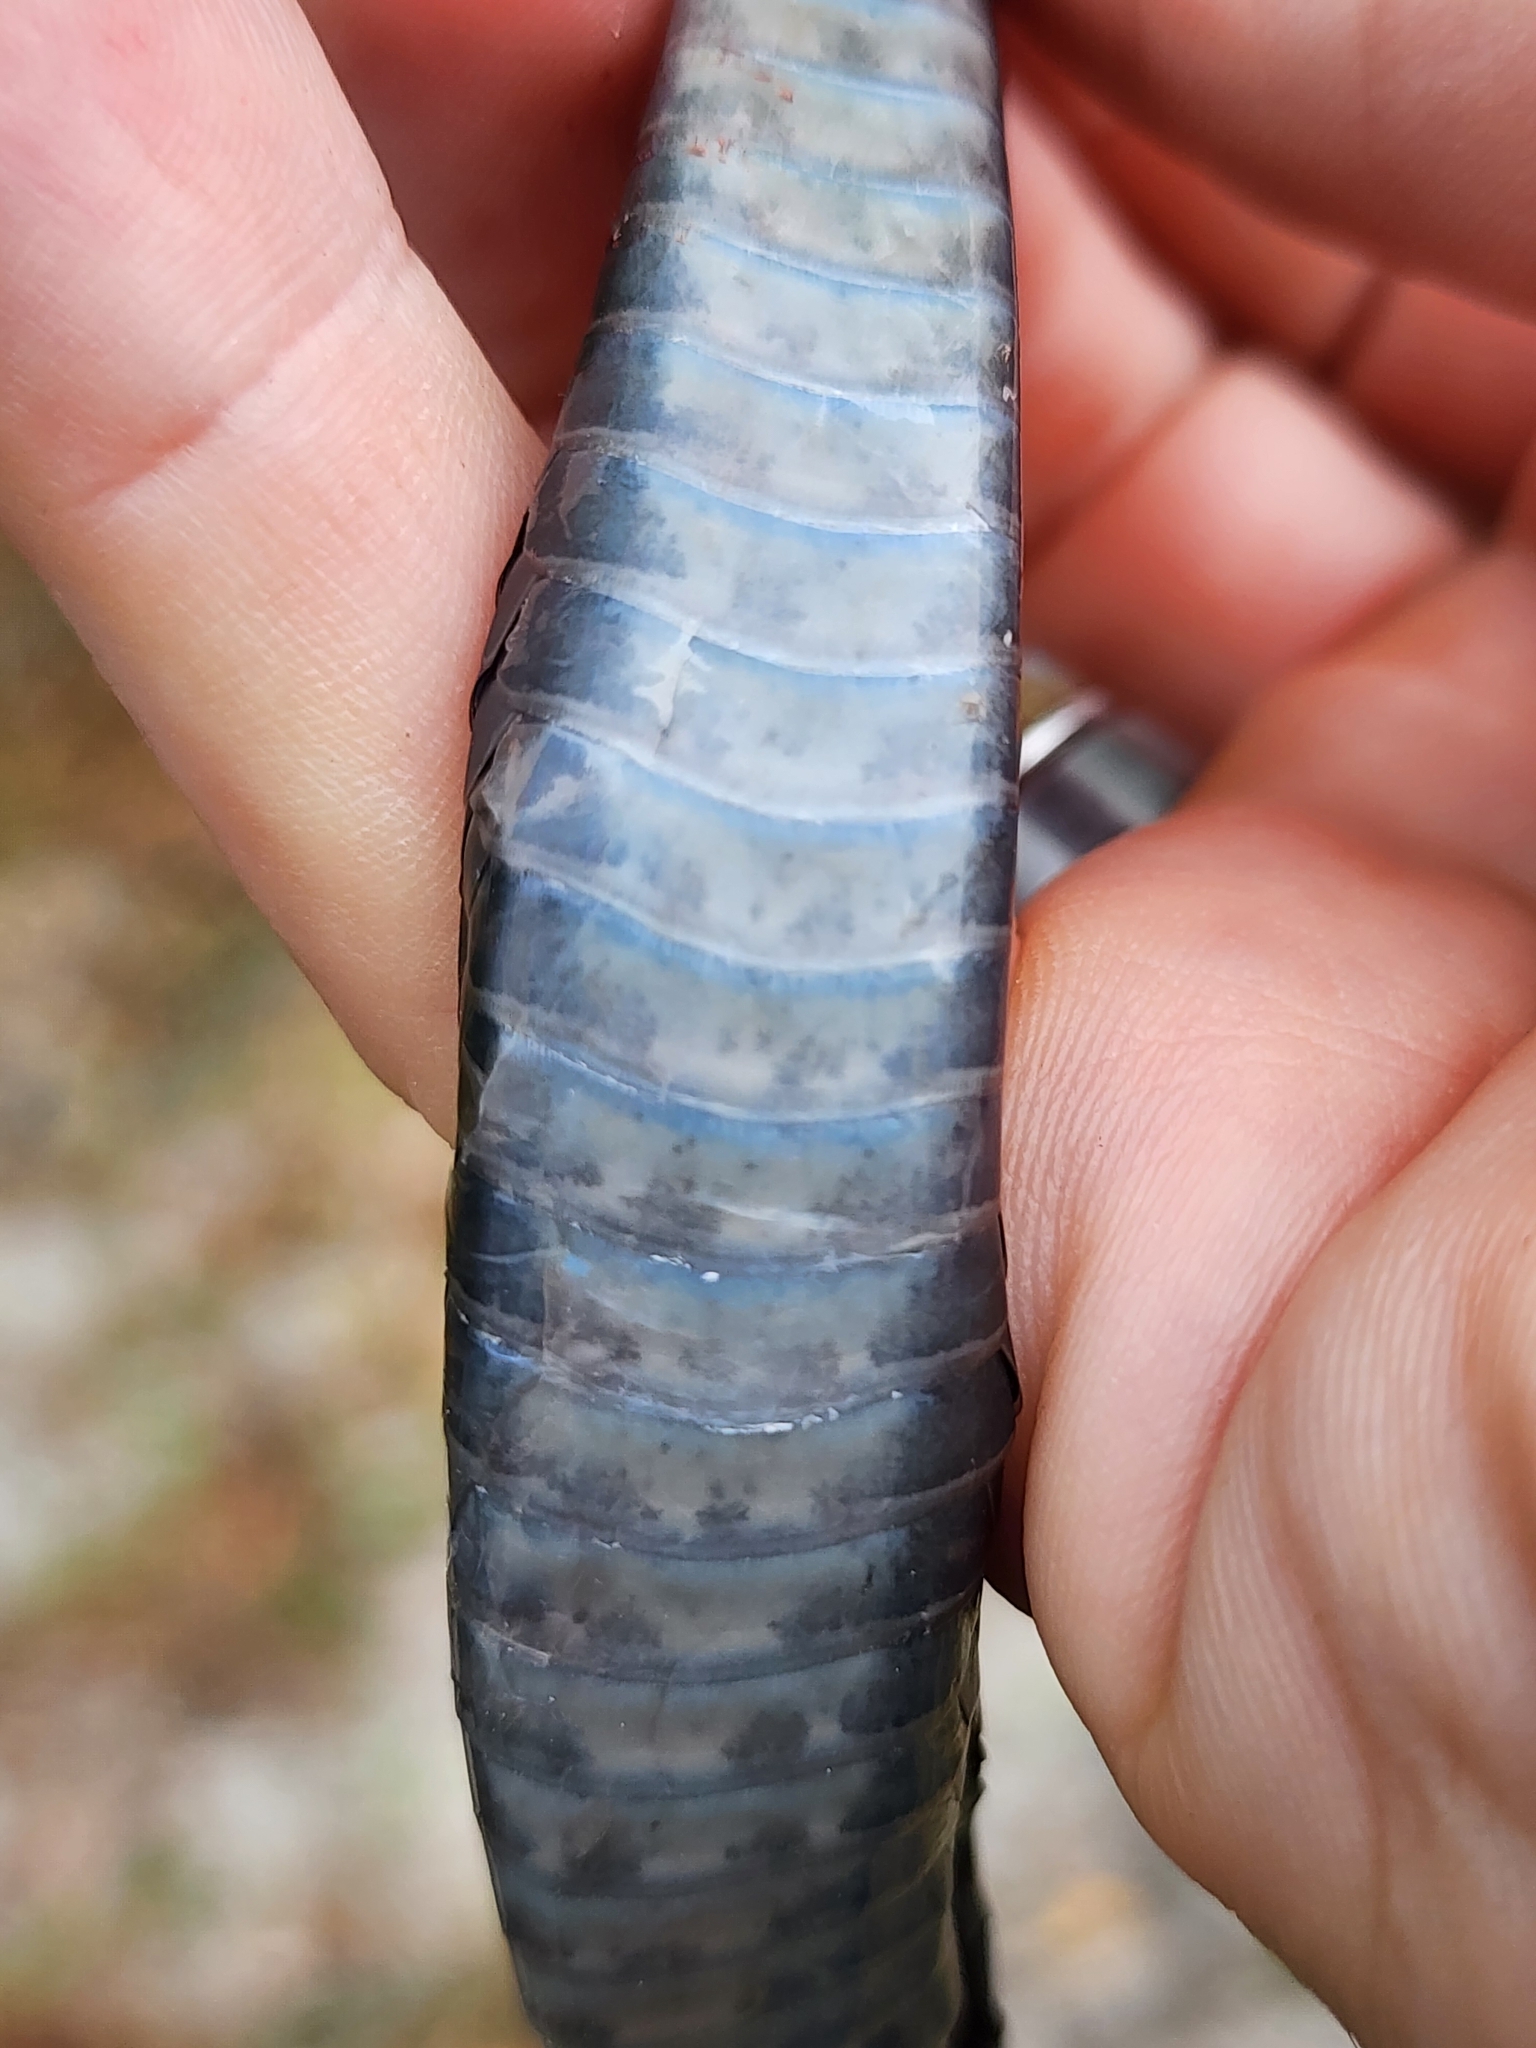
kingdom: Animalia
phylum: Chordata
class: Squamata
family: Colubridae
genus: Coluber
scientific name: Coluber constrictor
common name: Eastern racer
